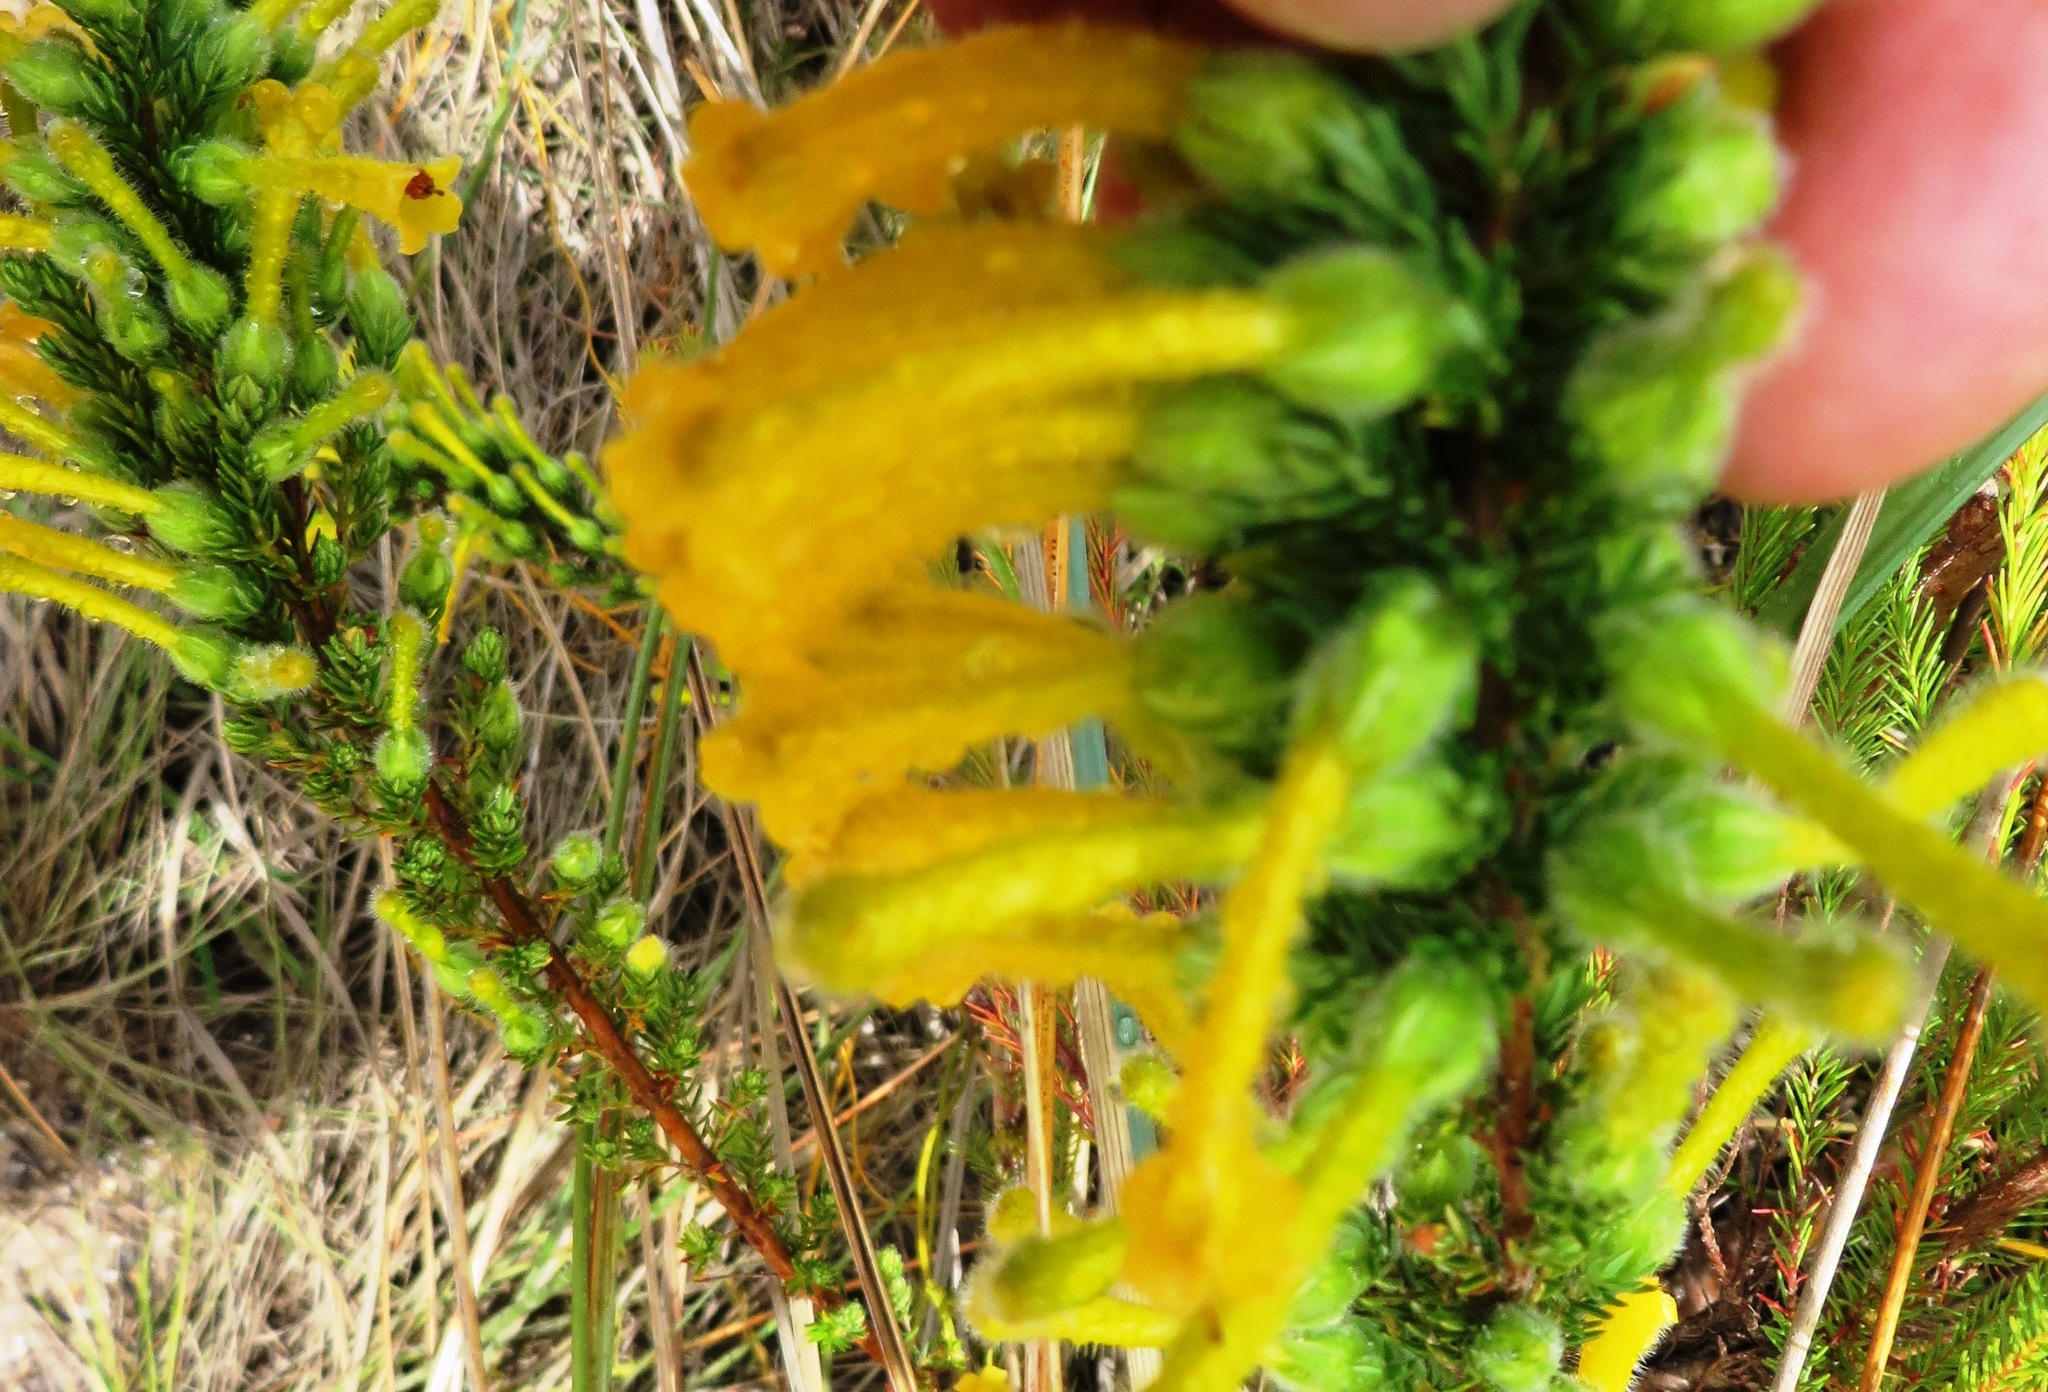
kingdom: Plantae
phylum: Tracheophyta
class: Magnoliopsida
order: Ericales
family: Ericaceae
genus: Erica
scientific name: Erica stagnalis
